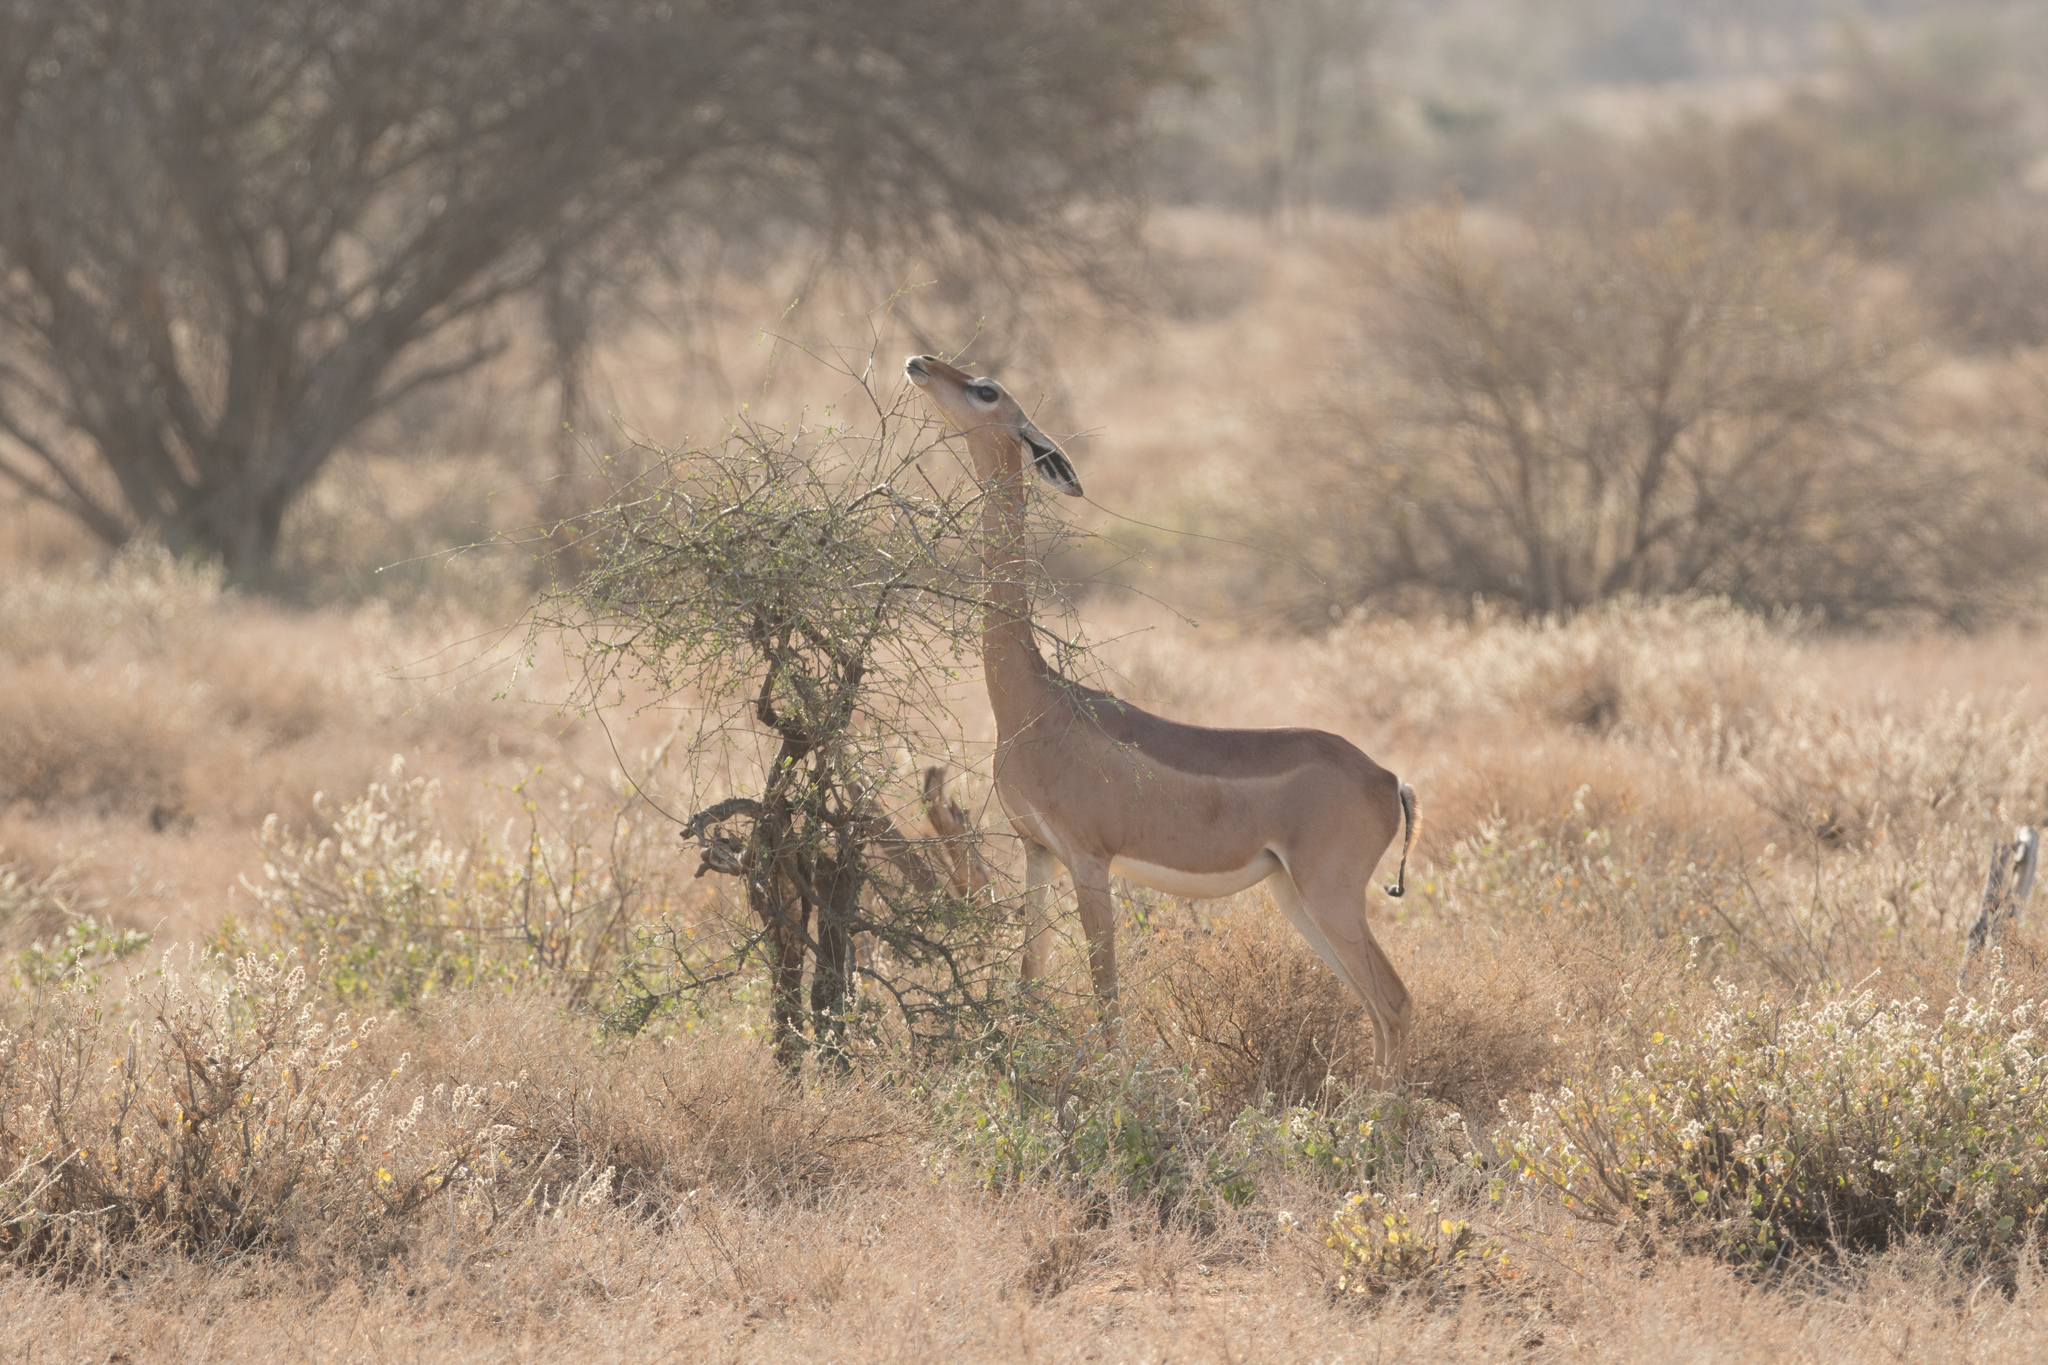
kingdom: Animalia
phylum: Chordata
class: Mammalia
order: Artiodactyla
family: Bovidae
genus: Litocranius
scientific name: Litocranius walleri
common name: Gerenuk
